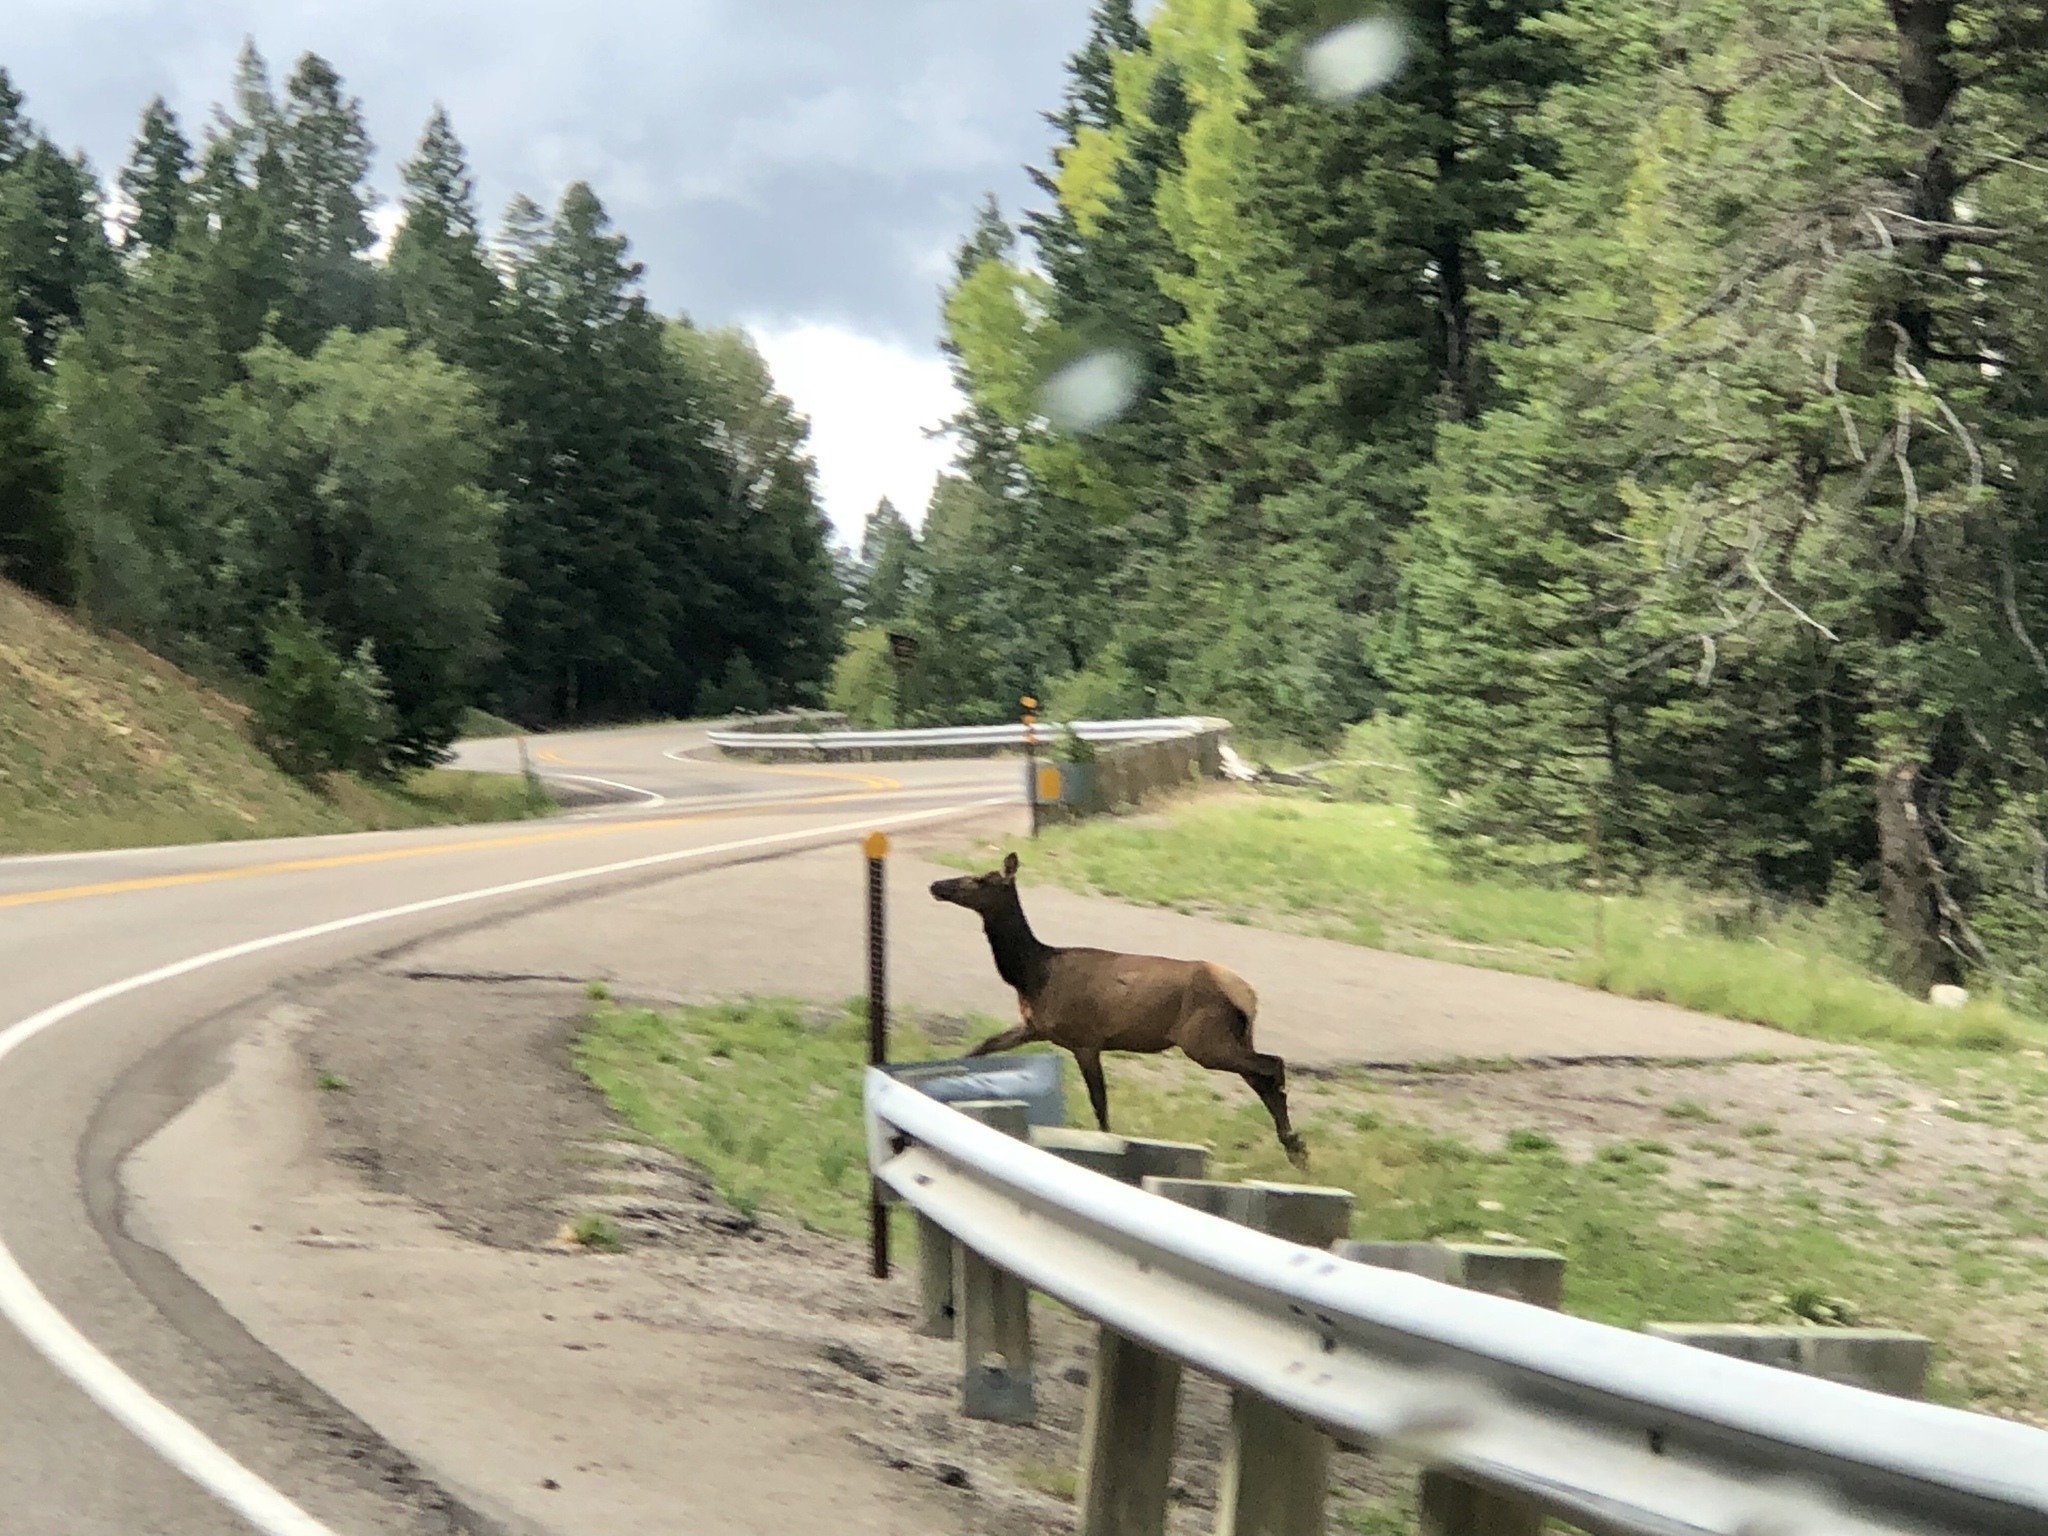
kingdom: Animalia
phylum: Chordata
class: Mammalia
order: Artiodactyla
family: Cervidae
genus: Cervus
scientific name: Cervus elaphus
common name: Red deer
